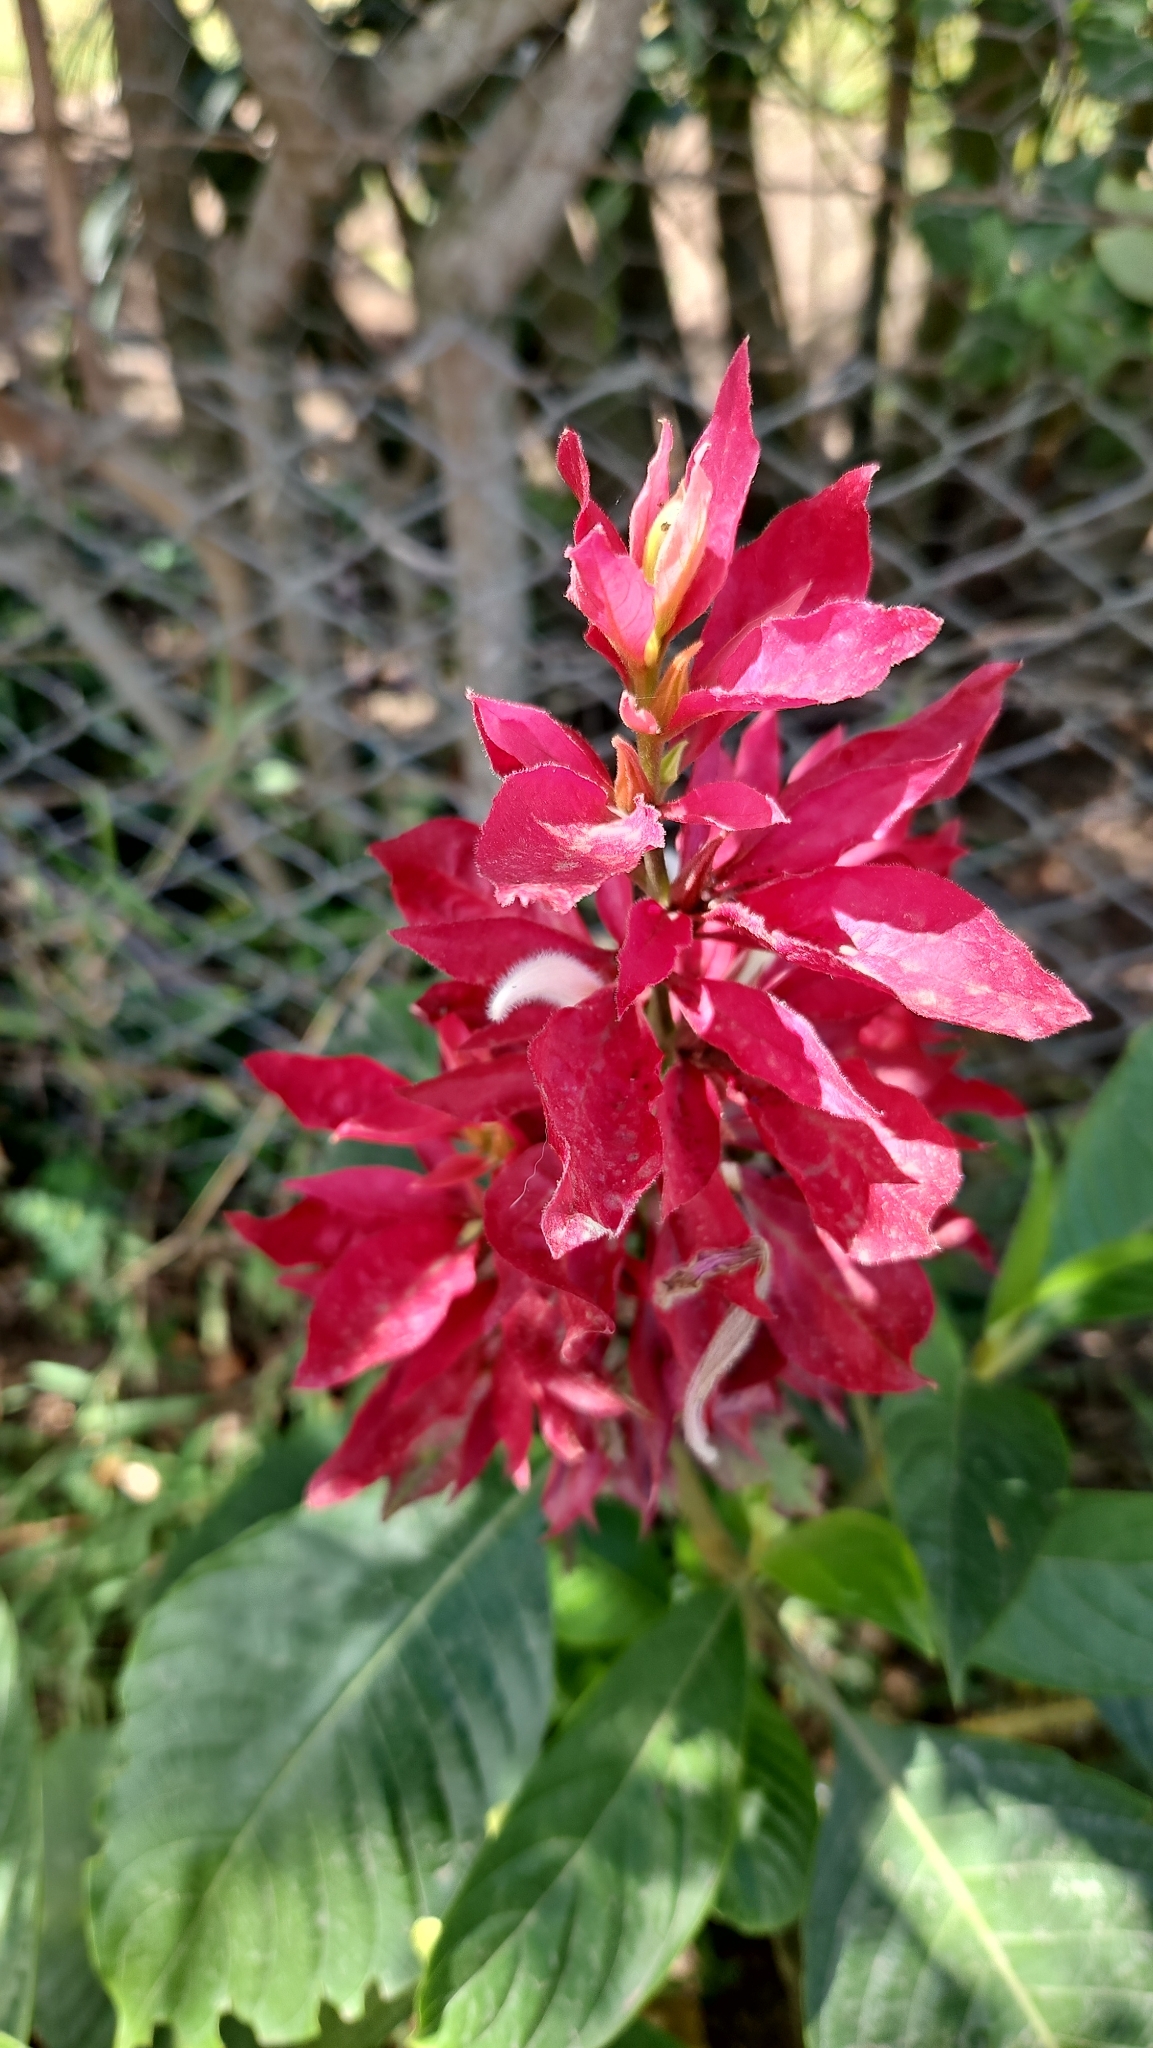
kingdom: Plantae
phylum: Tracheophyta
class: Magnoliopsida
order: Lamiales
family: Acanthaceae
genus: Megaskepasma
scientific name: Megaskepasma erythrochlamys
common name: Brazilian red-cloak
